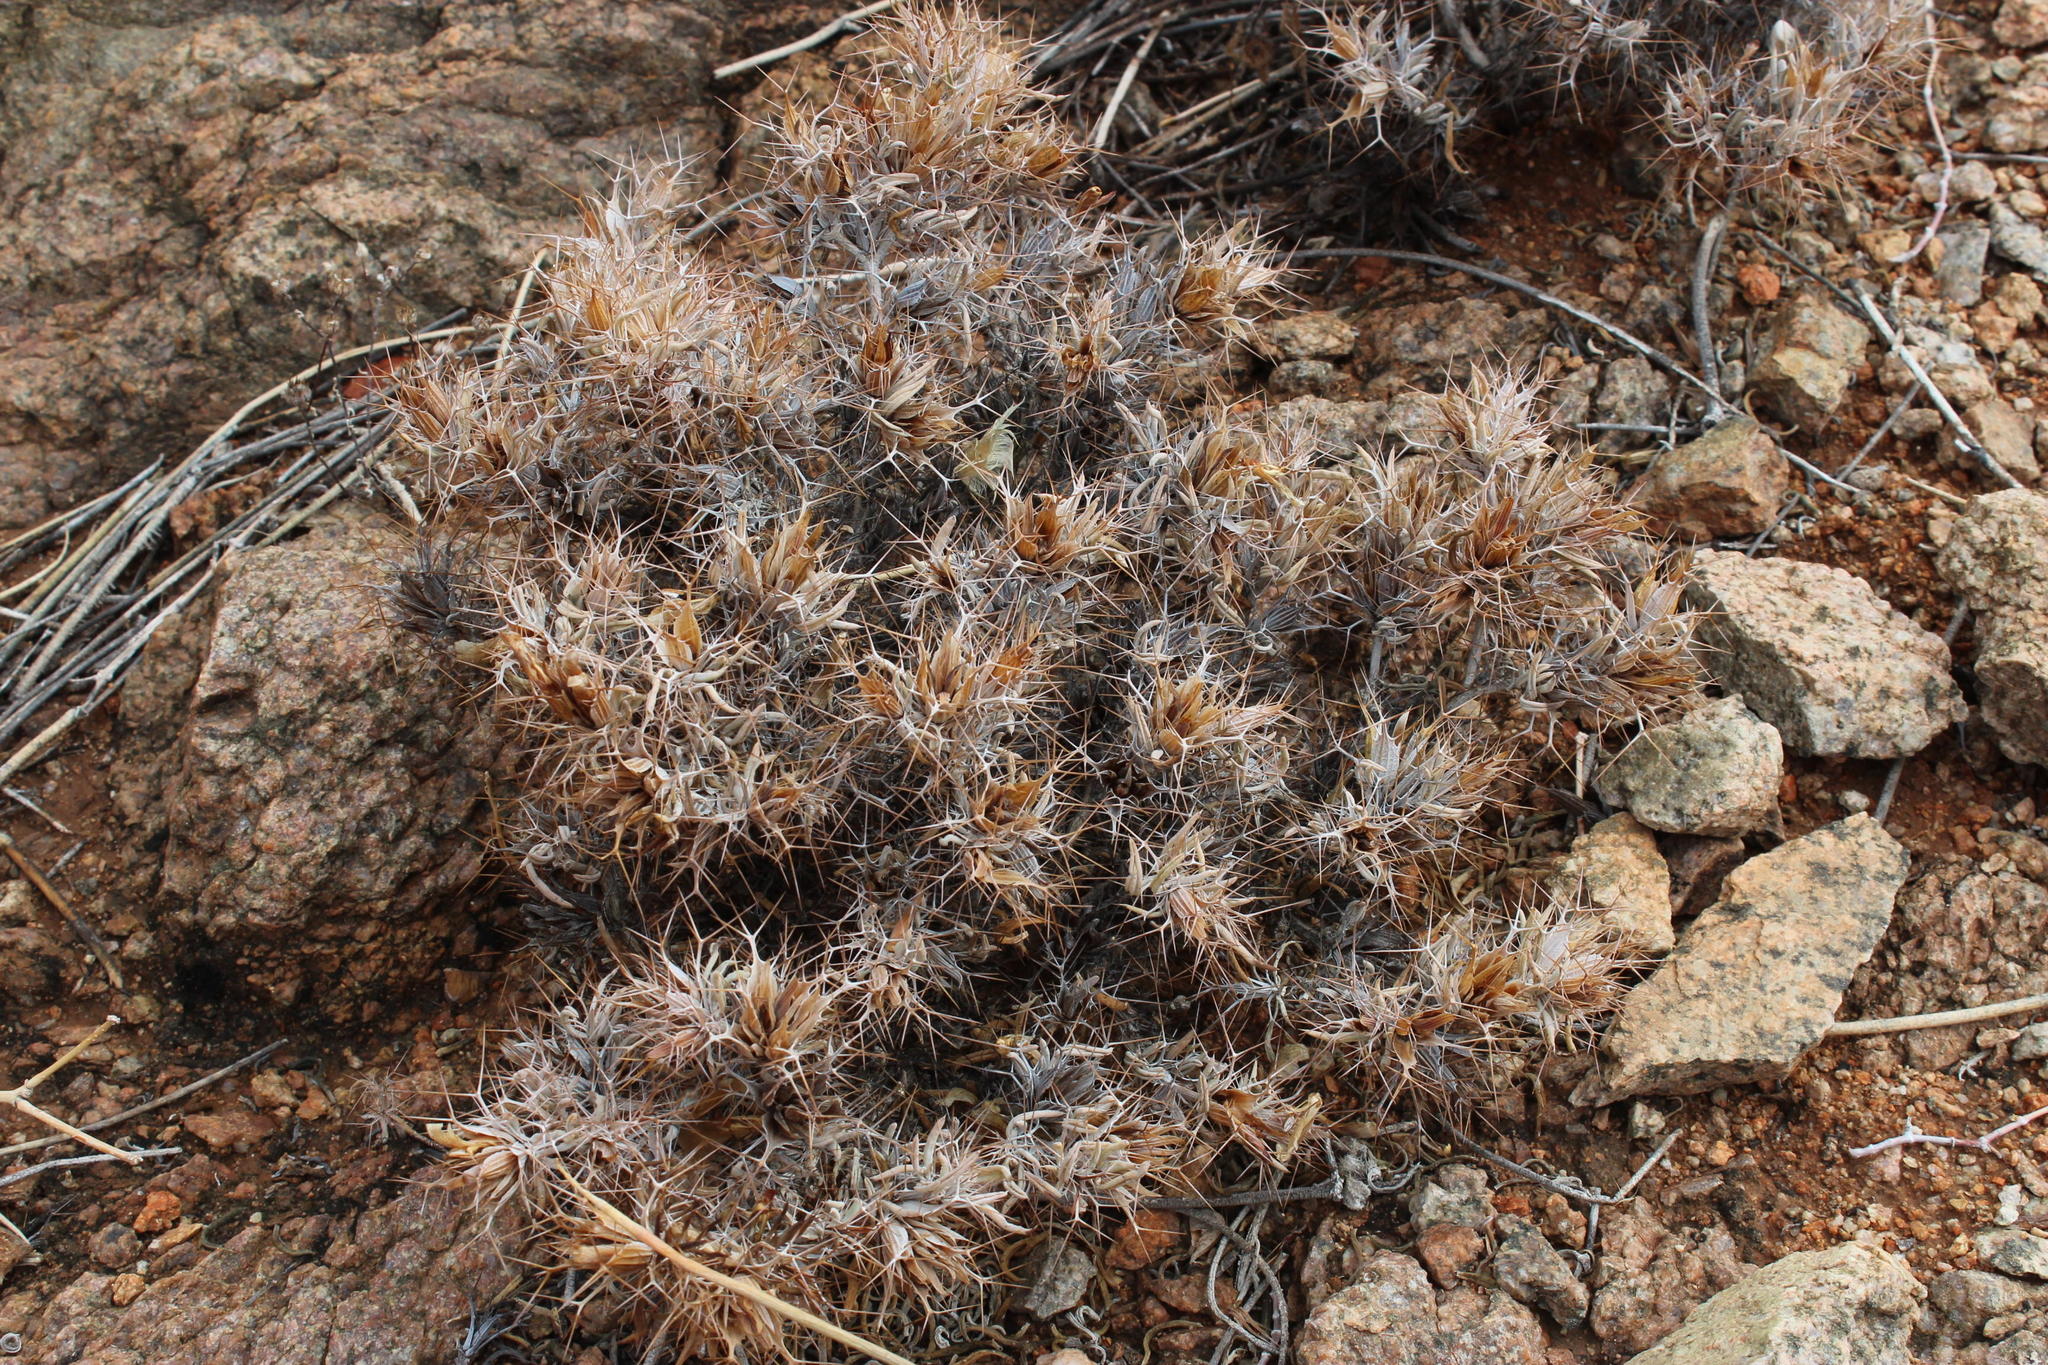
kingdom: Plantae
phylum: Tracheophyta
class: Magnoliopsida
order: Lamiales
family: Acanthaceae
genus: Blepharis
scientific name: Blepharis furcata
